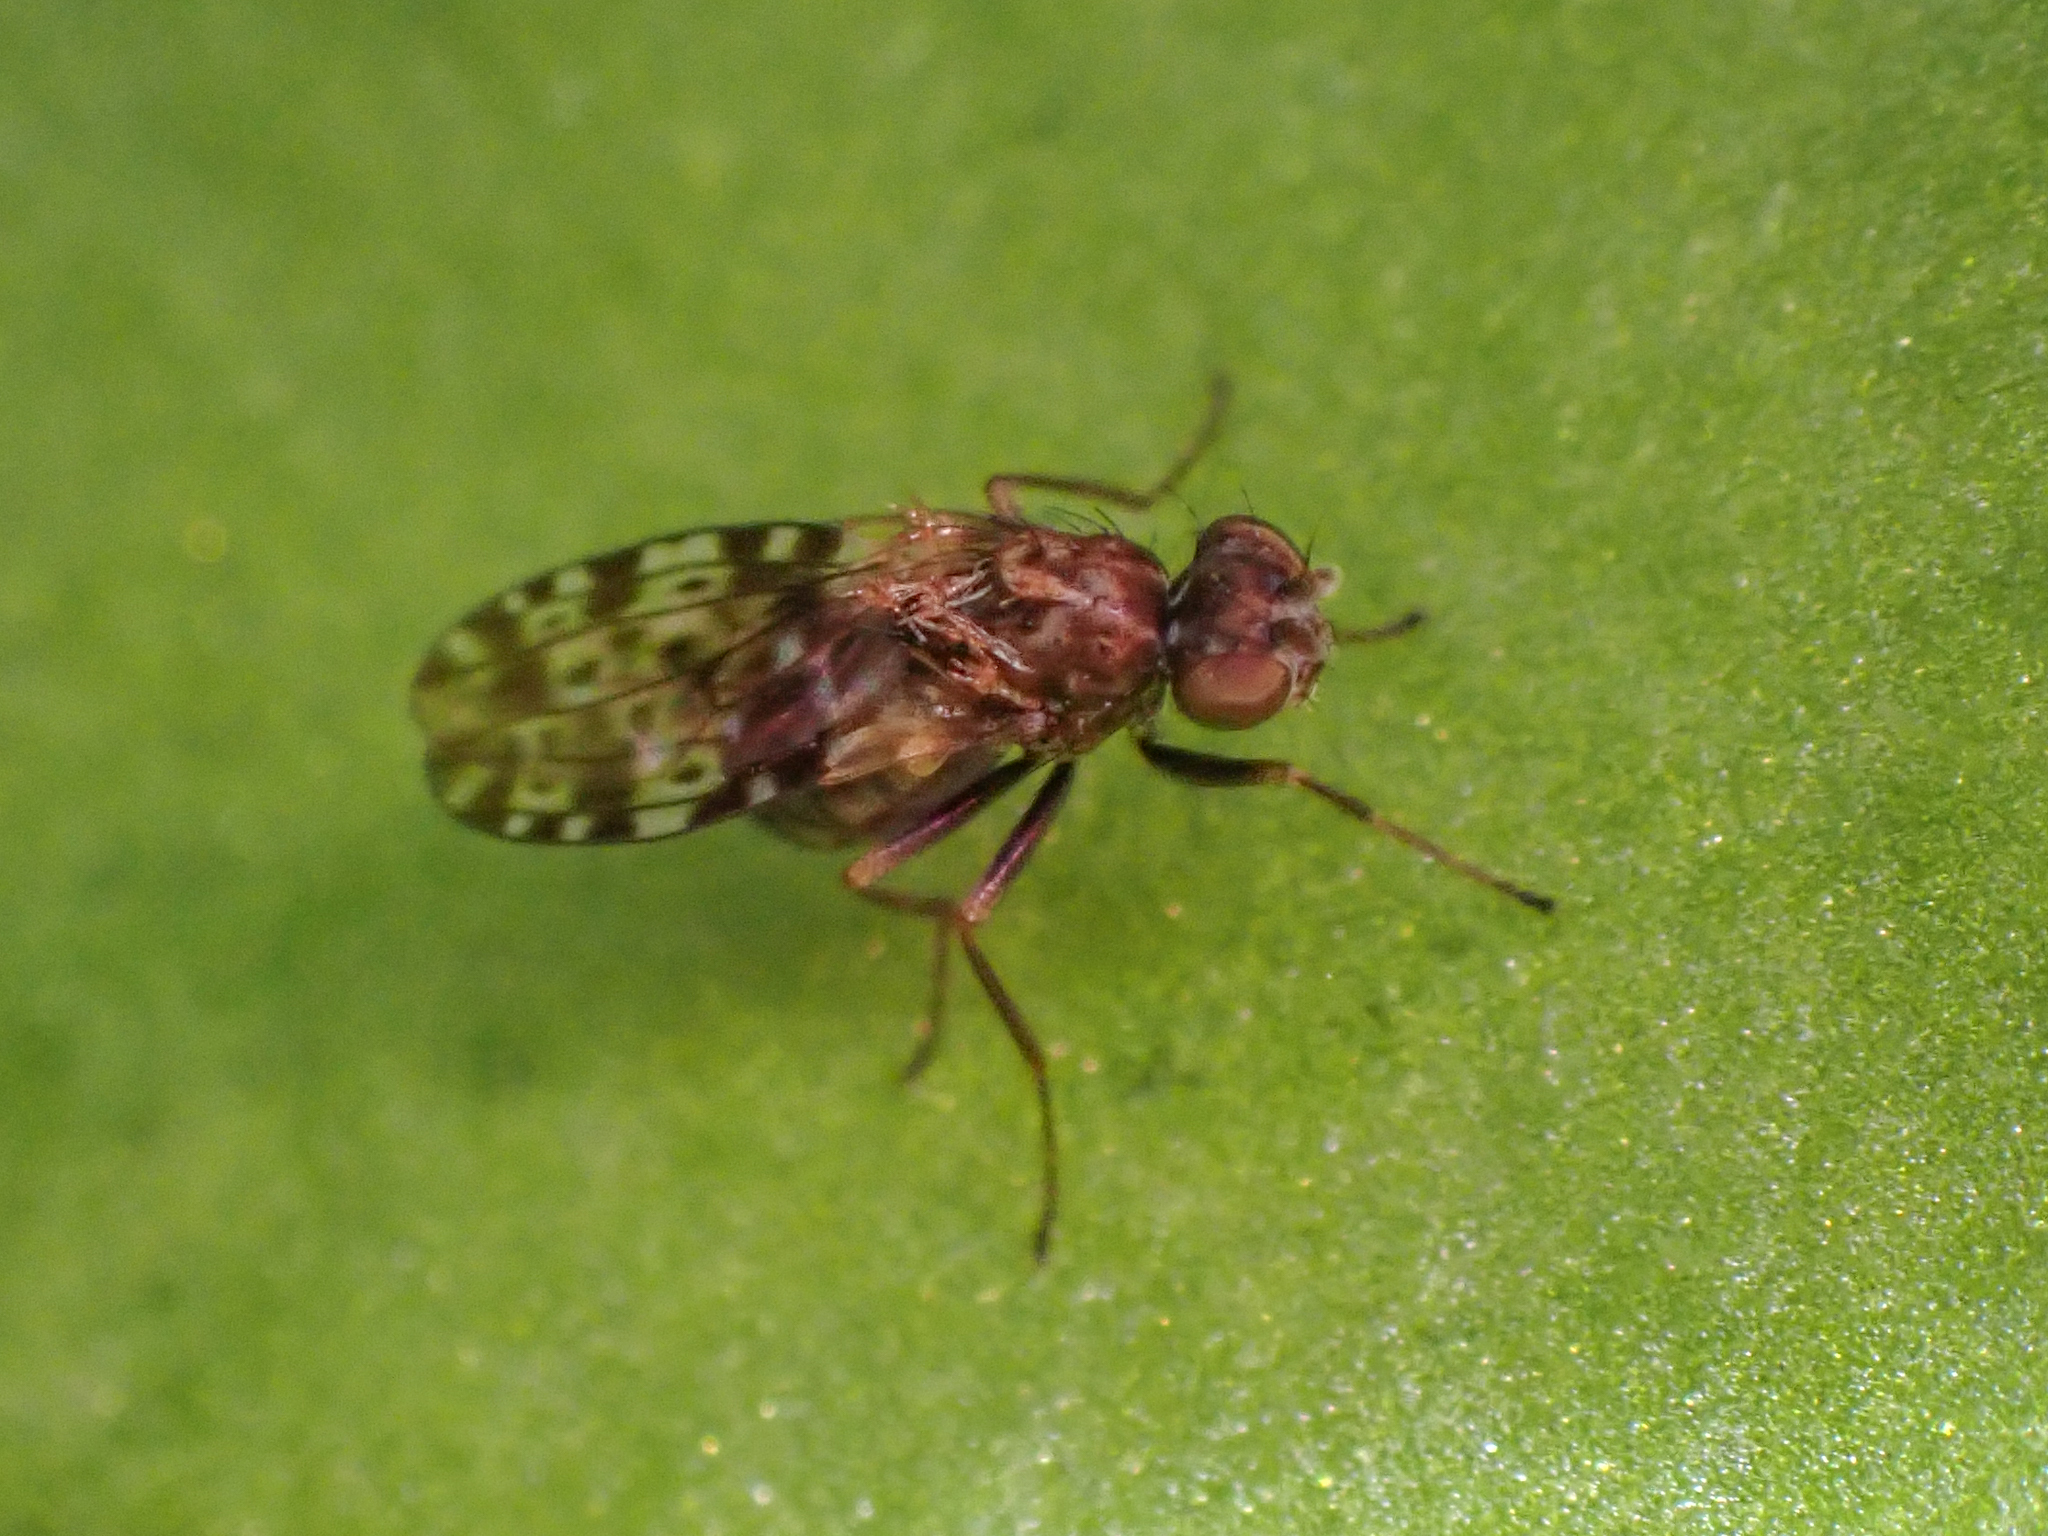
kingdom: Animalia
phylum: Arthropoda
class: Insecta
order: Diptera
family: Ephydridae
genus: Limnellia
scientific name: Limnellia balioptera
